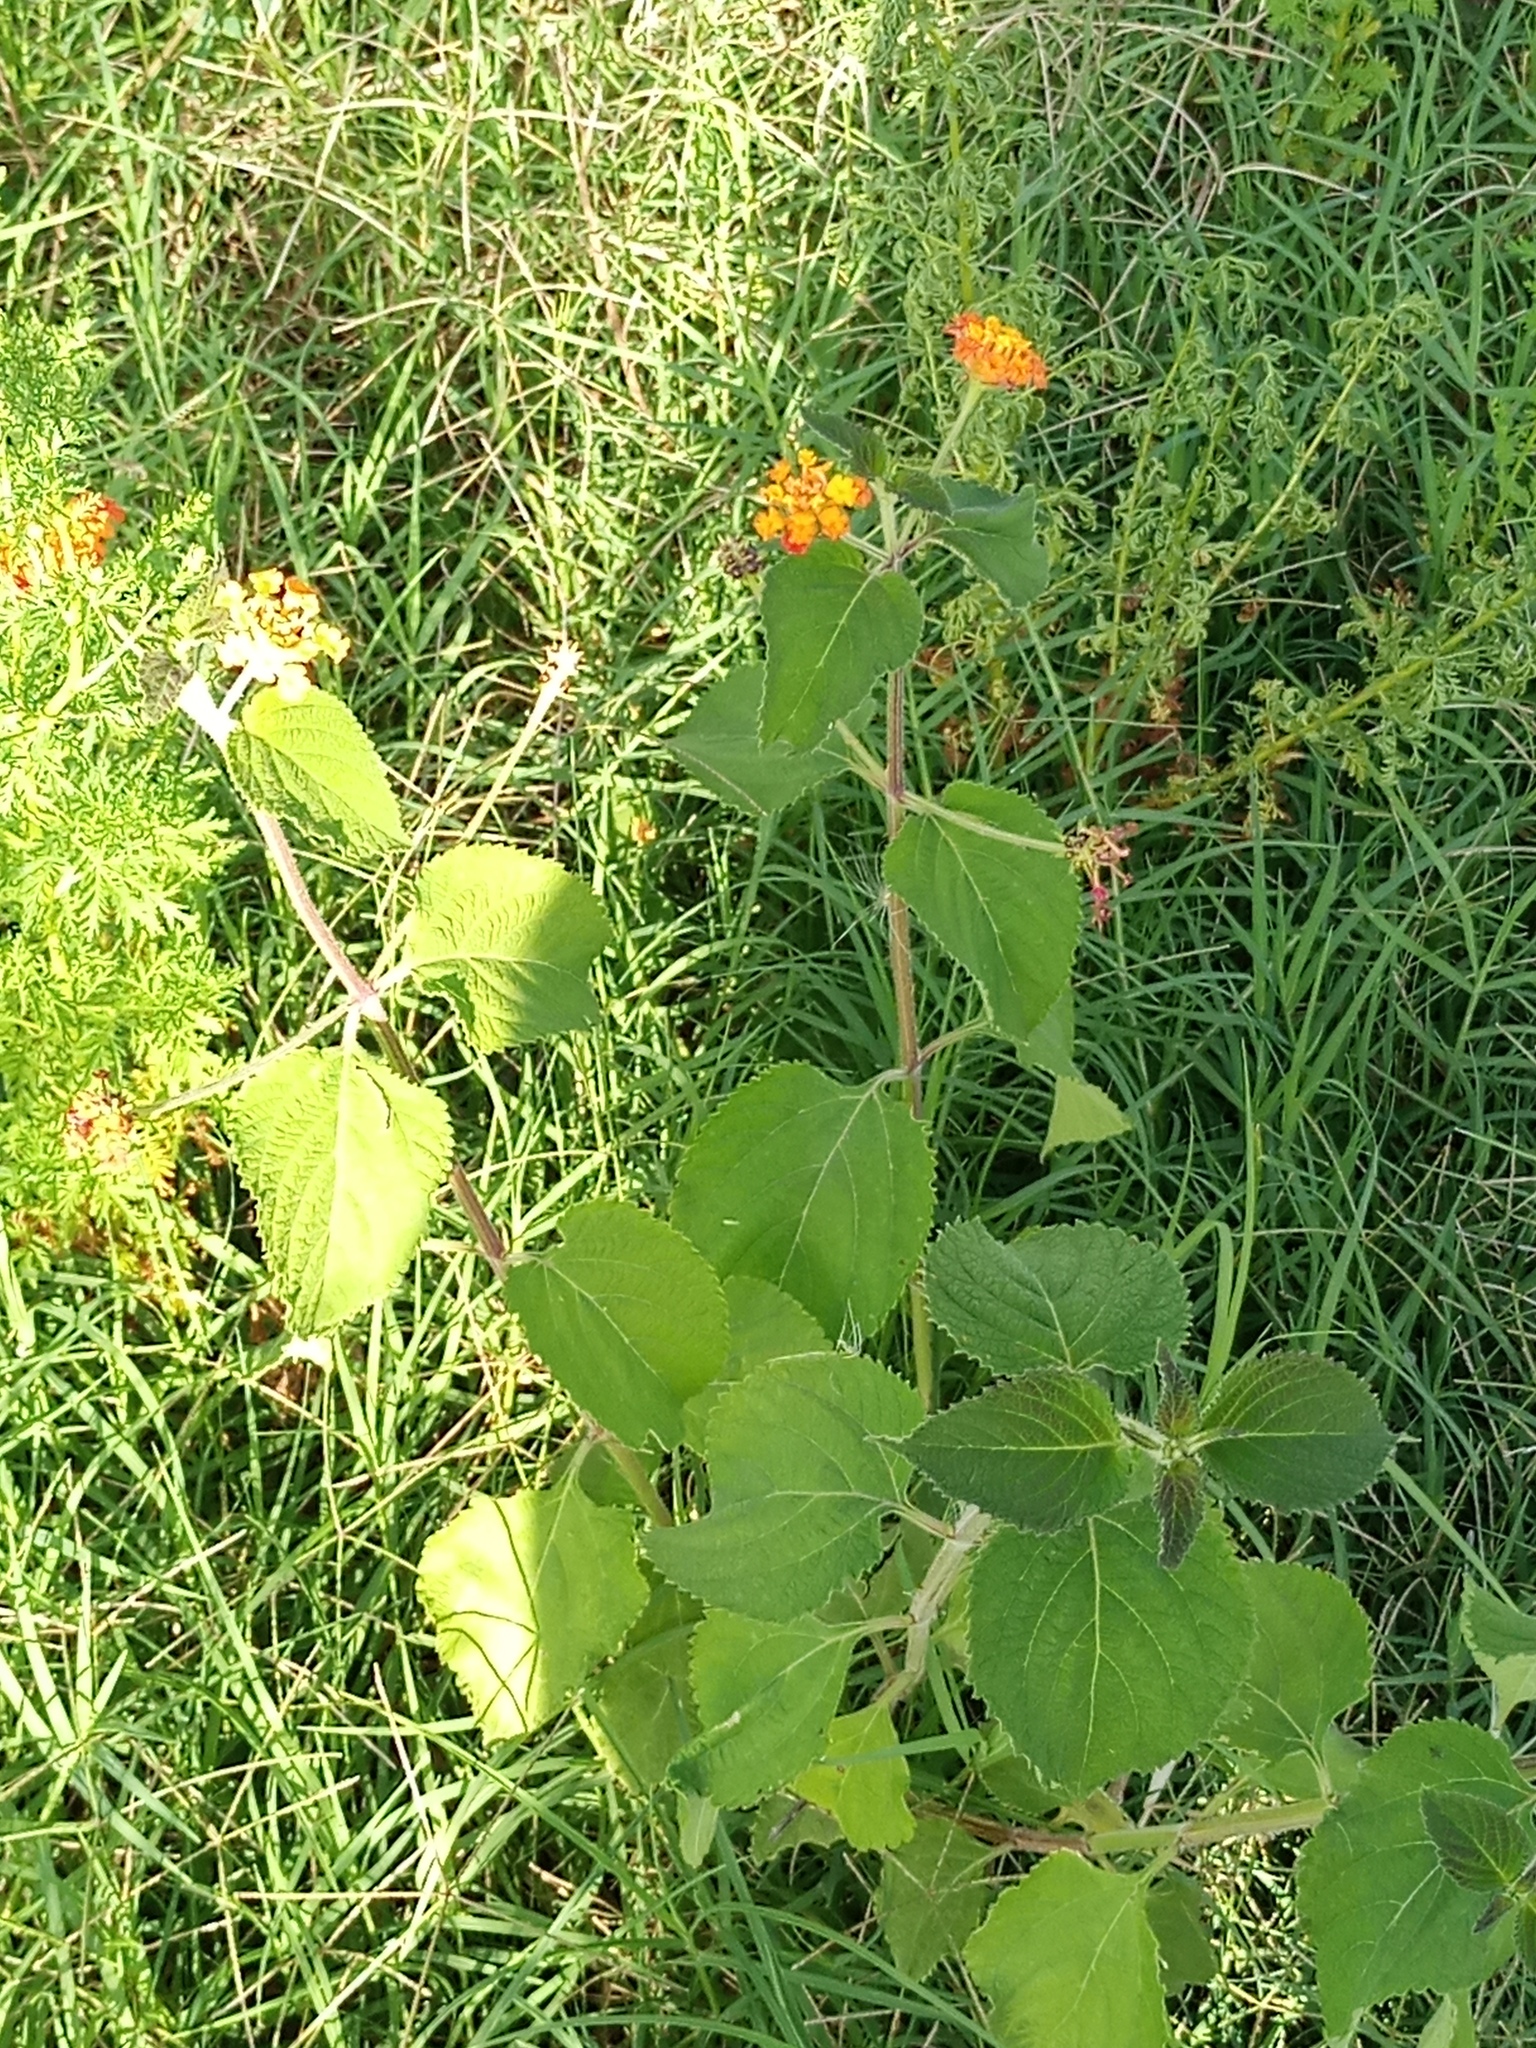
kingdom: Plantae
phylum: Tracheophyta
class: Magnoliopsida
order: Lamiales
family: Verbenaceae
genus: Lantana
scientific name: Lantana camara
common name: Lantana
